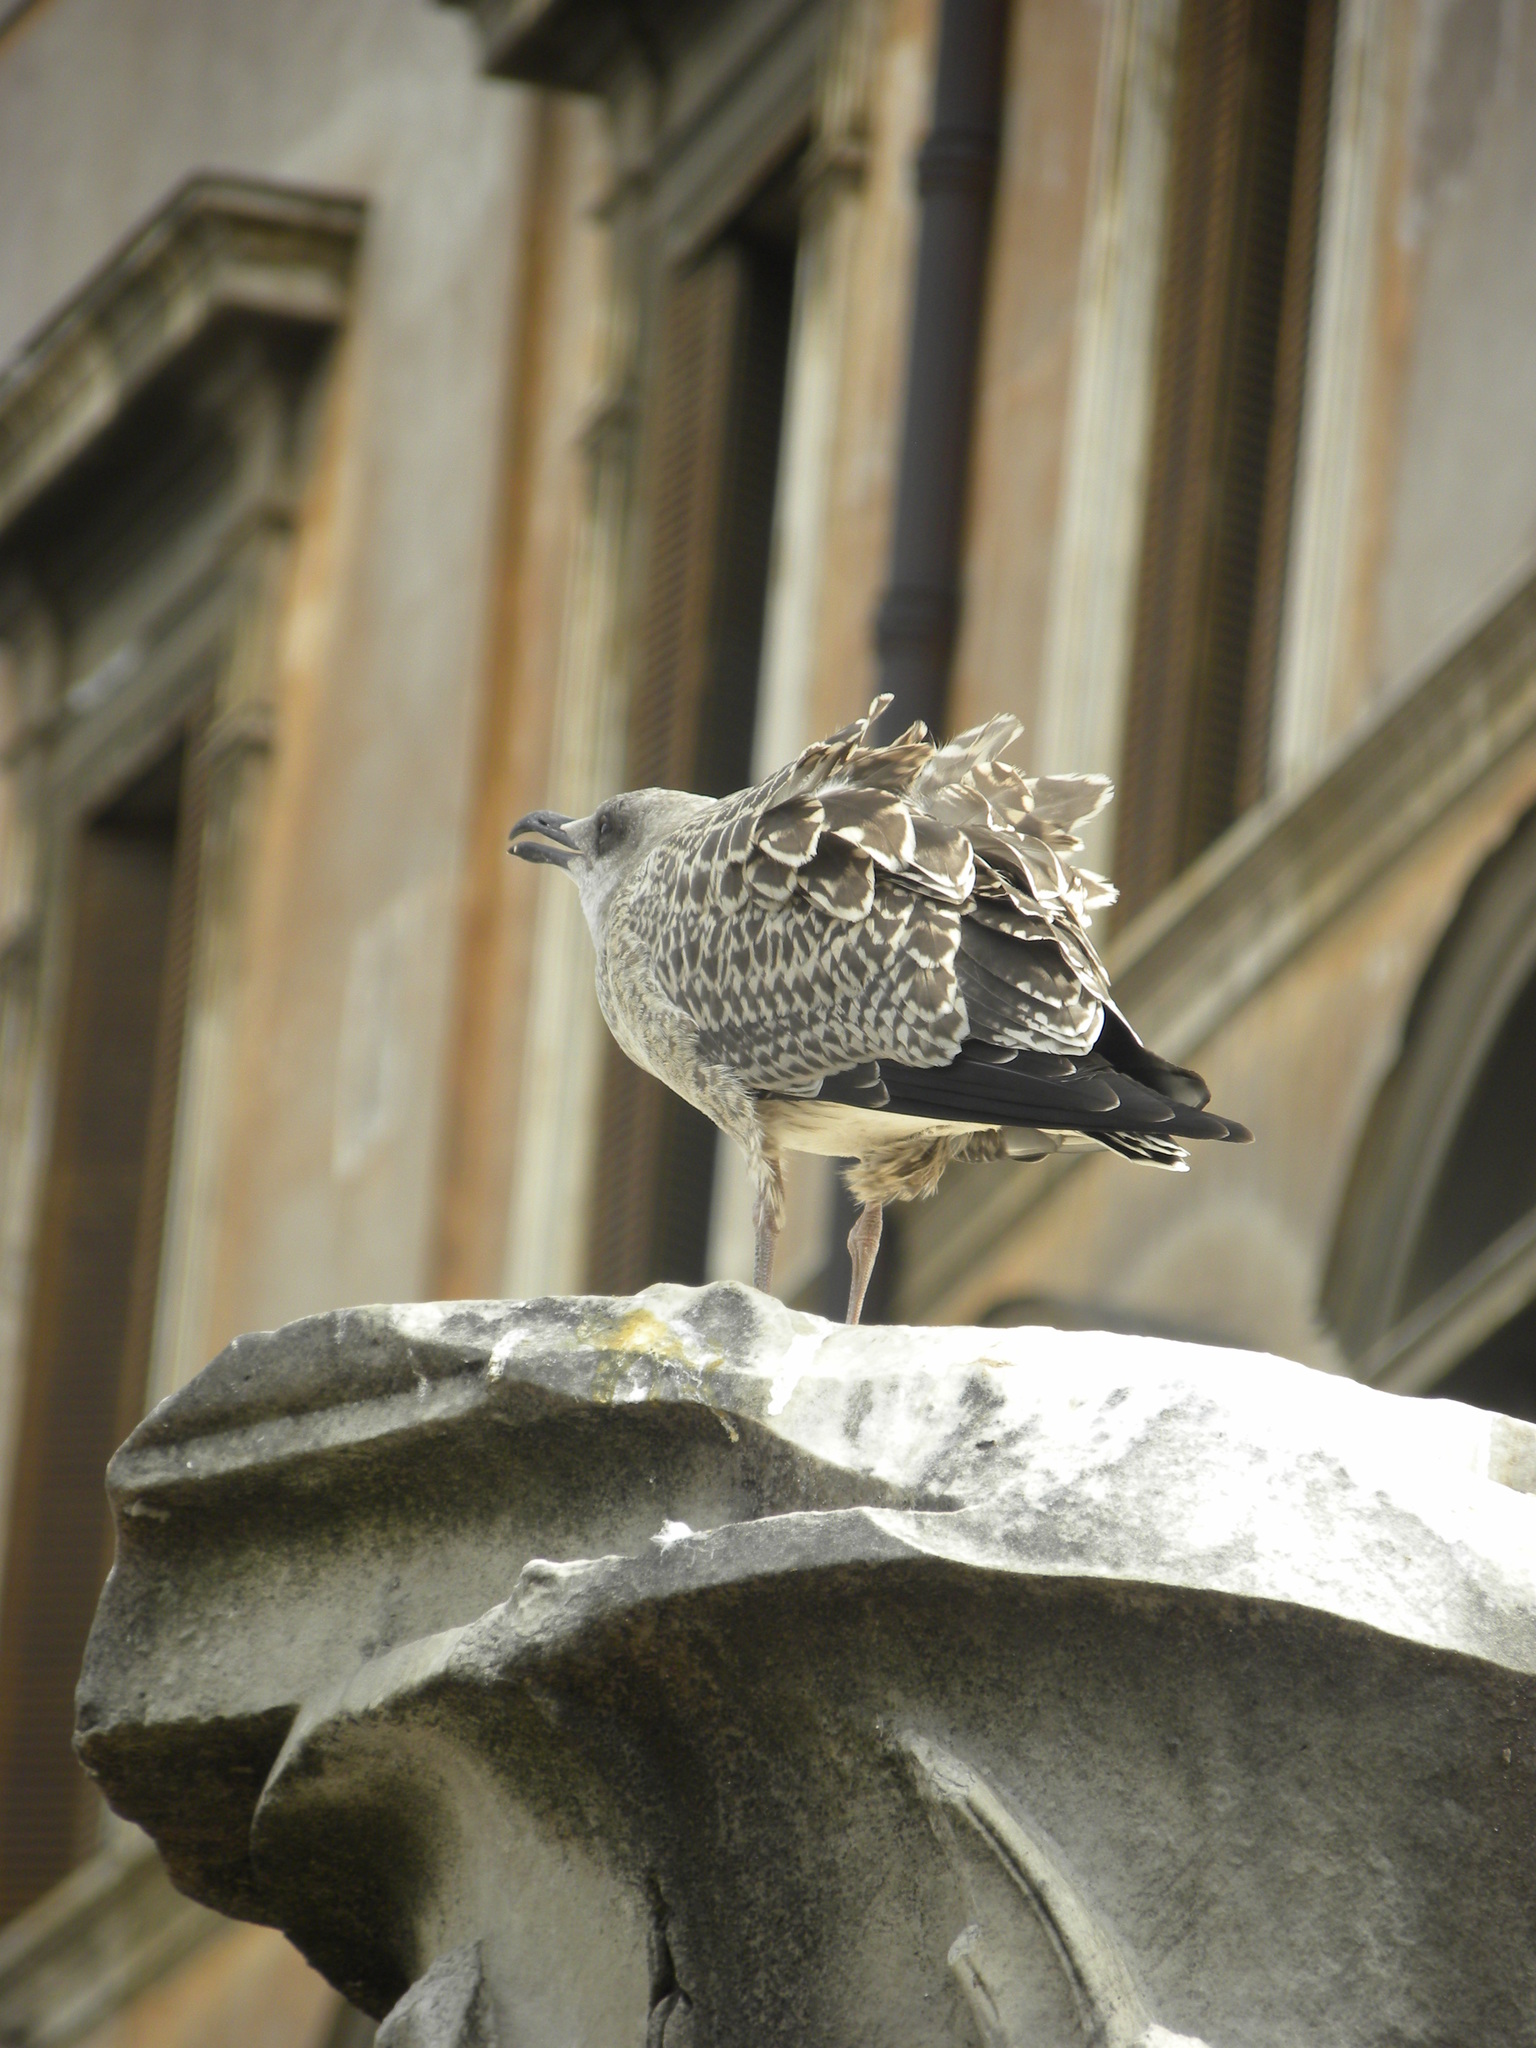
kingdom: Animalia
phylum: Chordata
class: Aves
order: Charadriiformes
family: Laridae
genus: Larus
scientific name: Larus michahellis
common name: Yellow-legged gull
